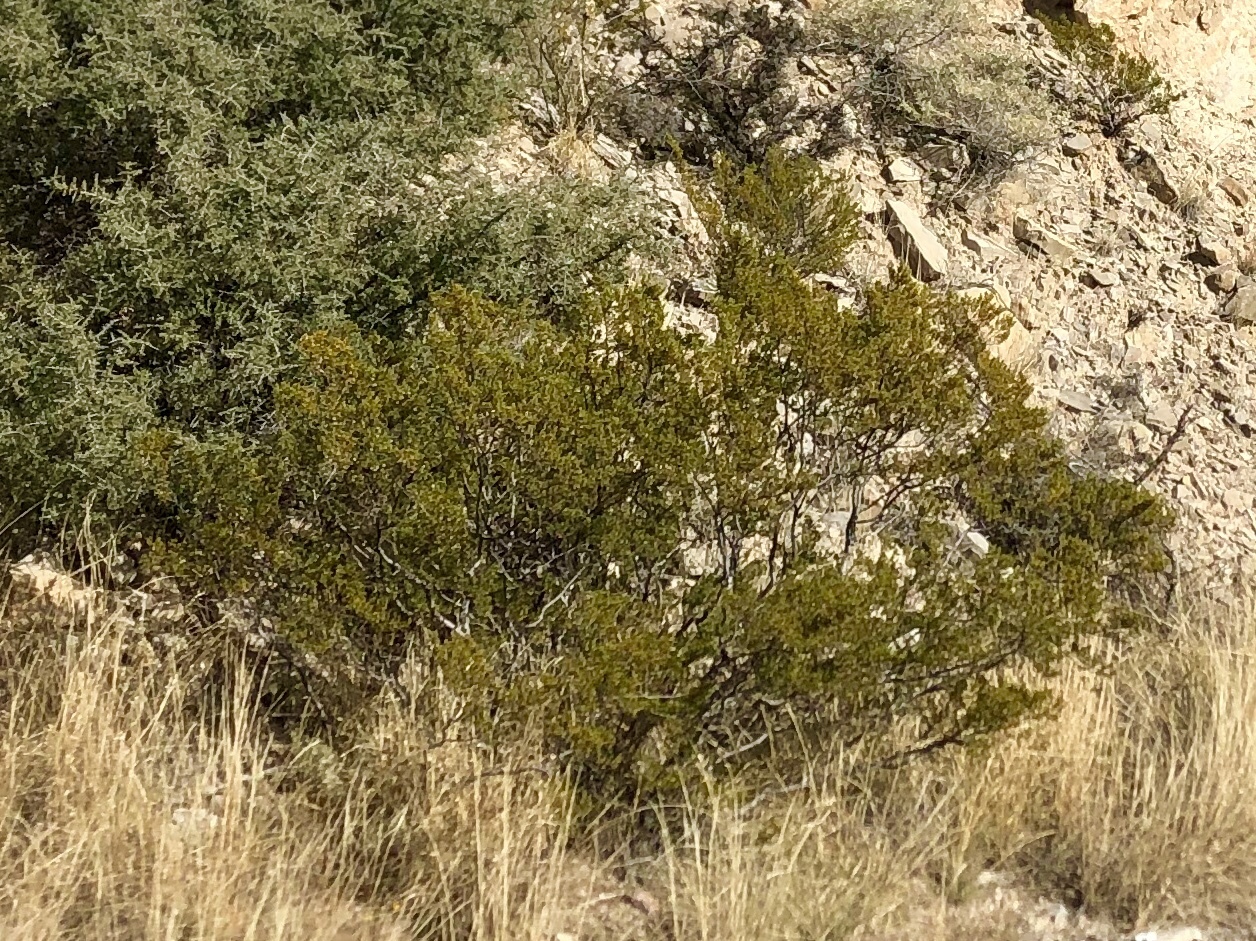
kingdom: Plantae
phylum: Tracheophyta
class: Magnoliopsida
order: Zygophyllales
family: Zygophyllaceae
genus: Larrea
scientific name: Larrea tridentata
